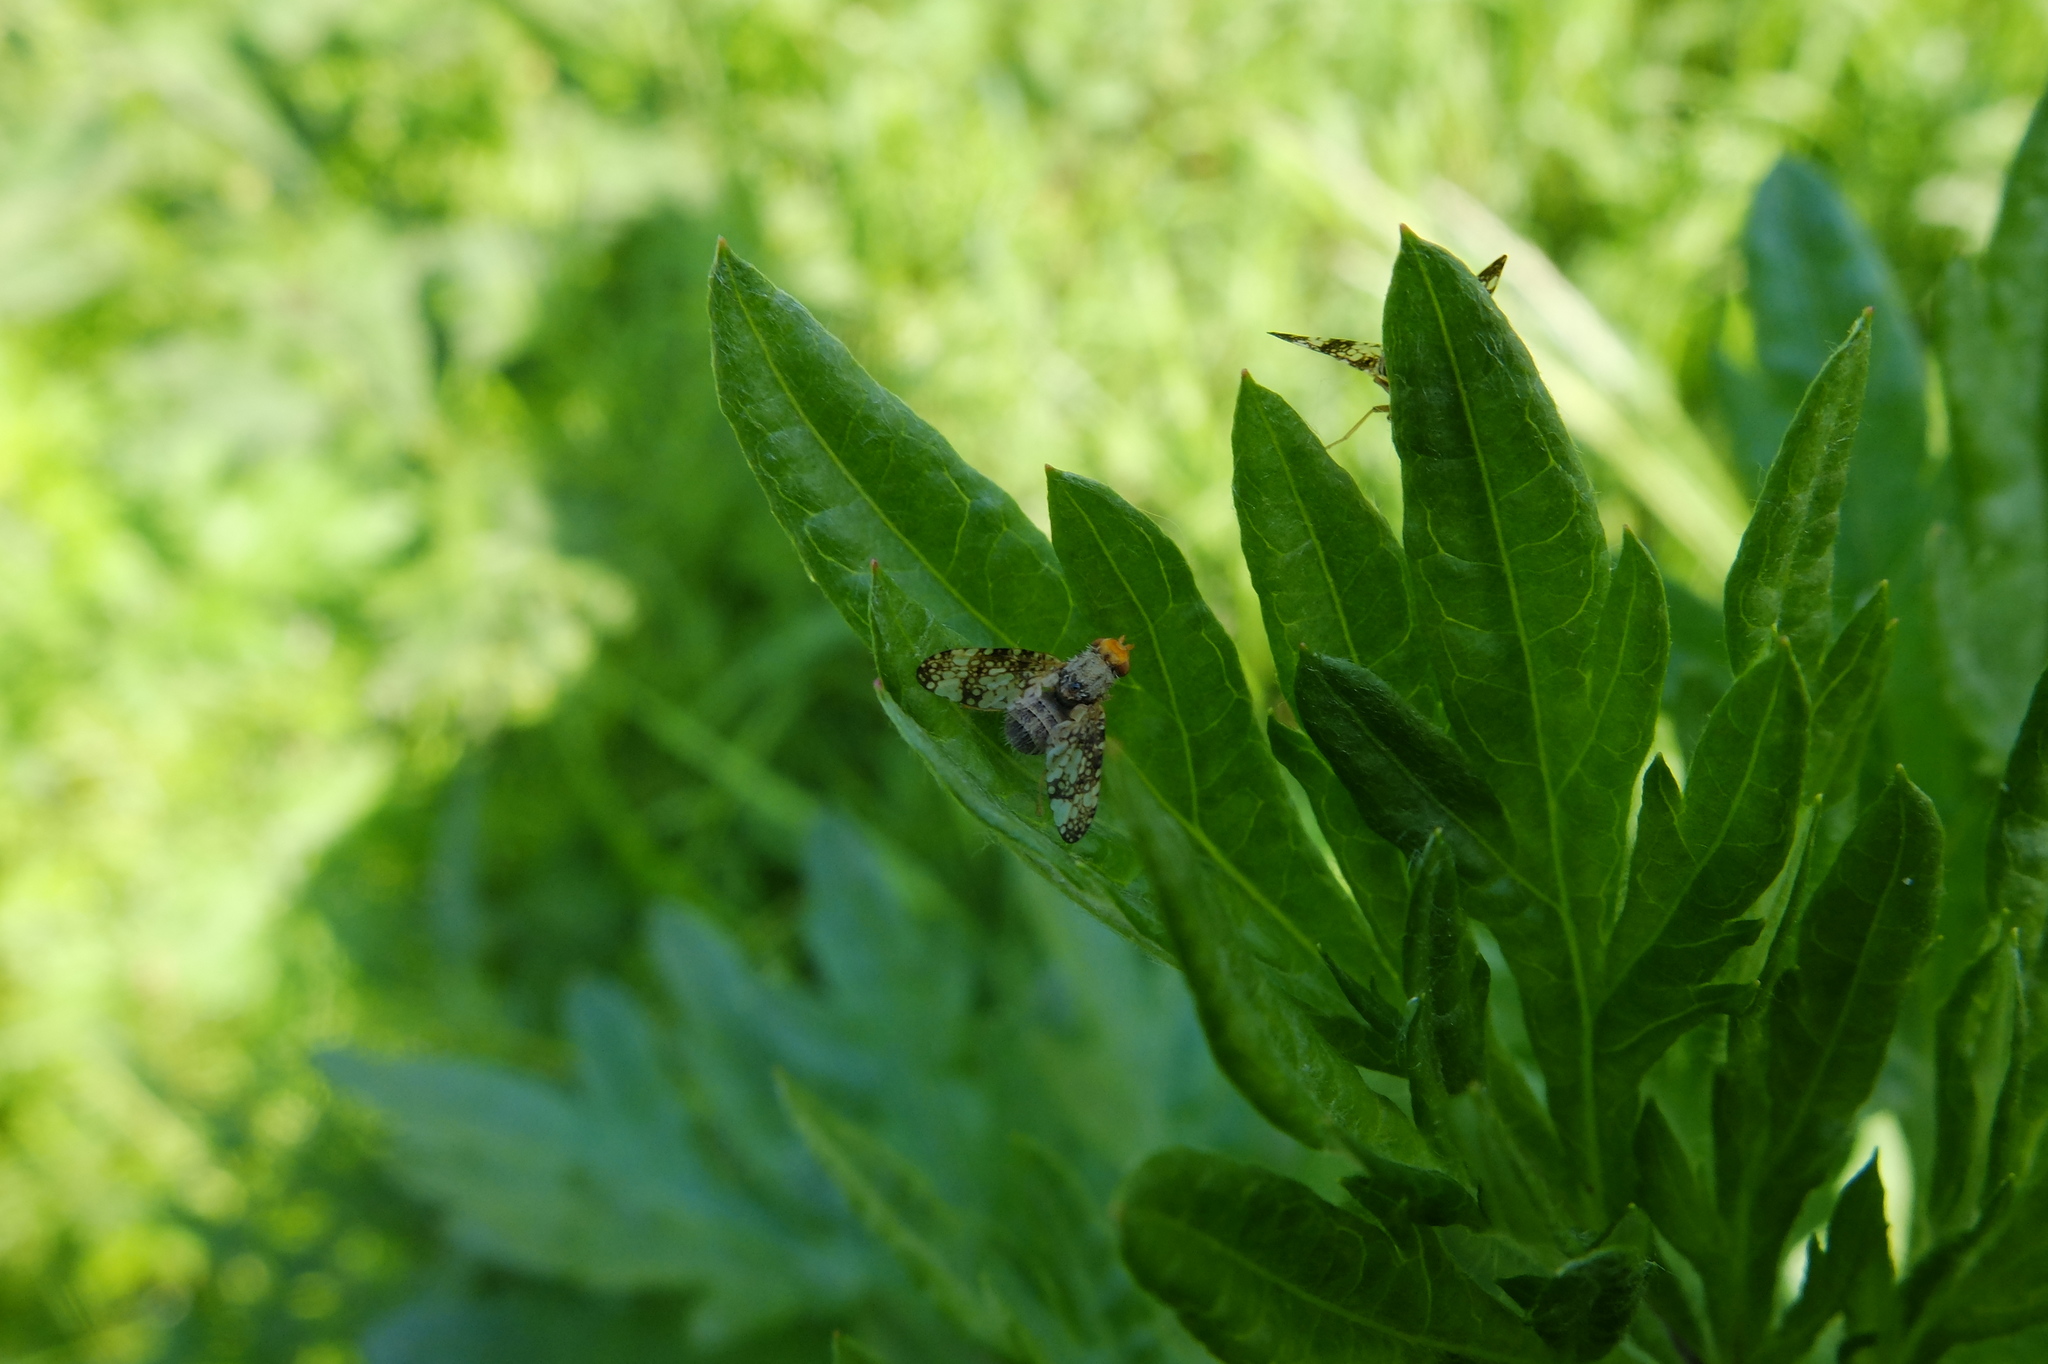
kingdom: Animalia
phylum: Arthropoda
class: Insecta
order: Diptera
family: Tephritidae
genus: Oxyna
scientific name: Oxyna parietina
